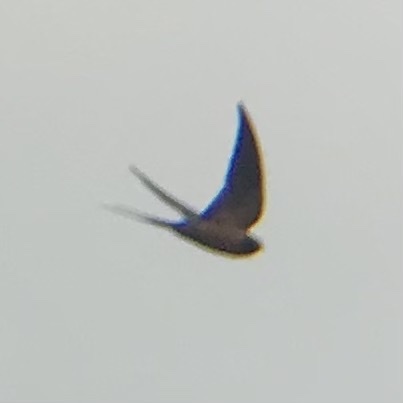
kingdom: Animalia
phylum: Chordata
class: Aves
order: Passeriformes
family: Hirundinidae
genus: Hirundo
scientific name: Hirundo rustica
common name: Barn swallow
